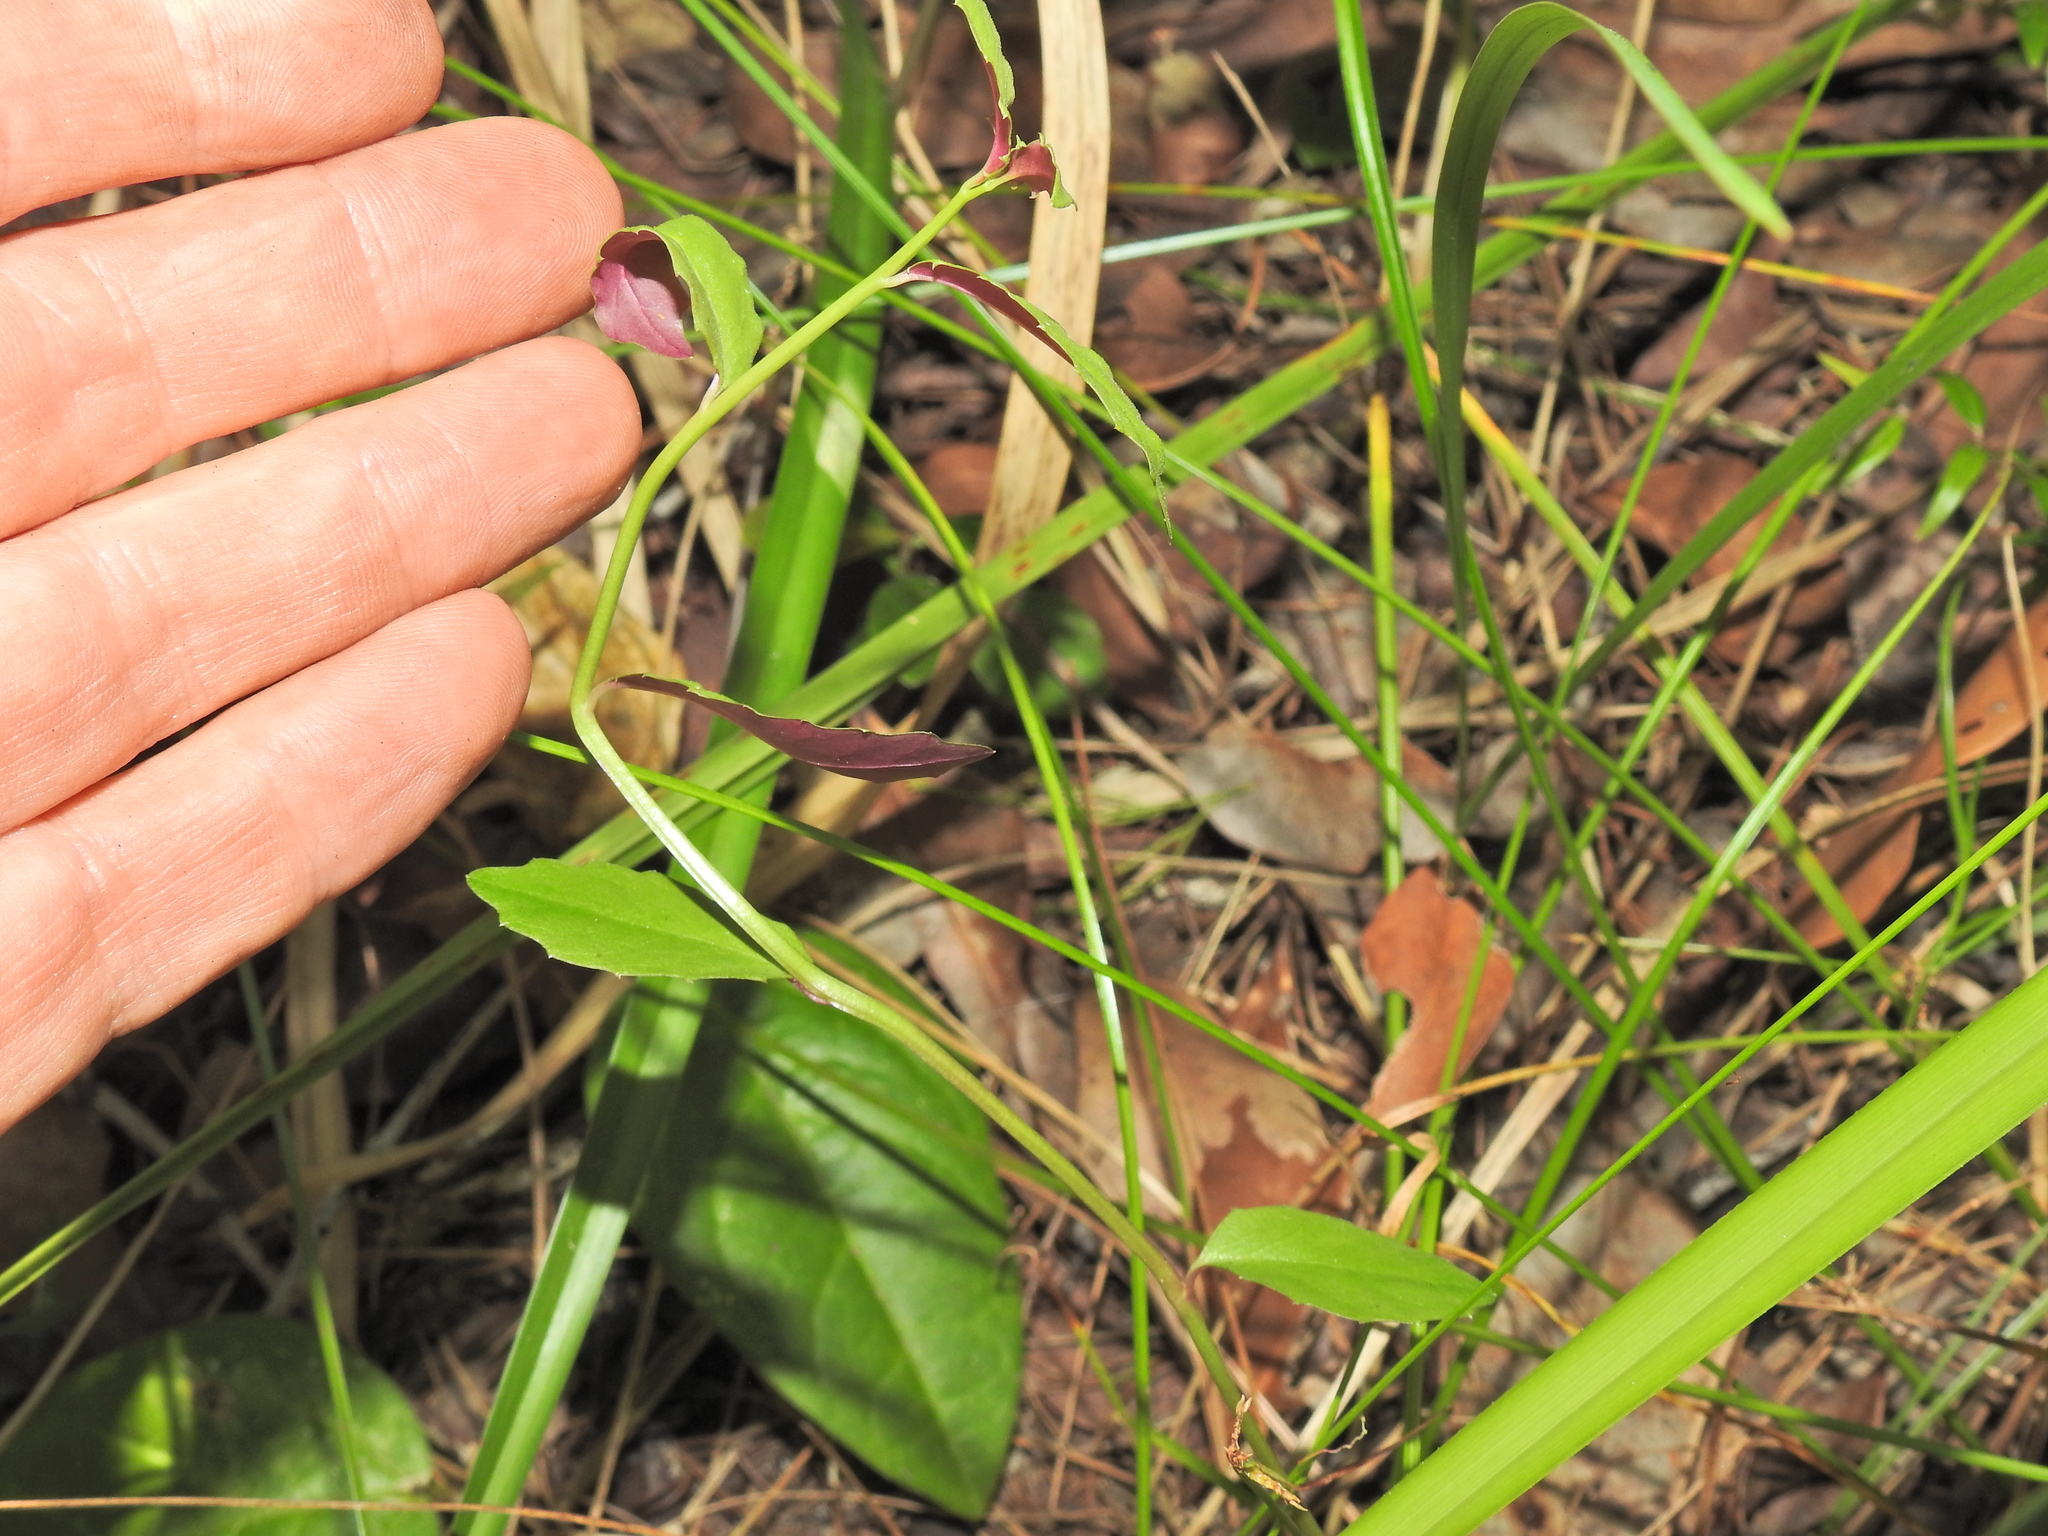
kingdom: Plantae
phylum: Tracheophyta
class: Magnoliopsida
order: Asterales
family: Campanulaceae
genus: Lobelia
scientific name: Lobelia purpurascens
